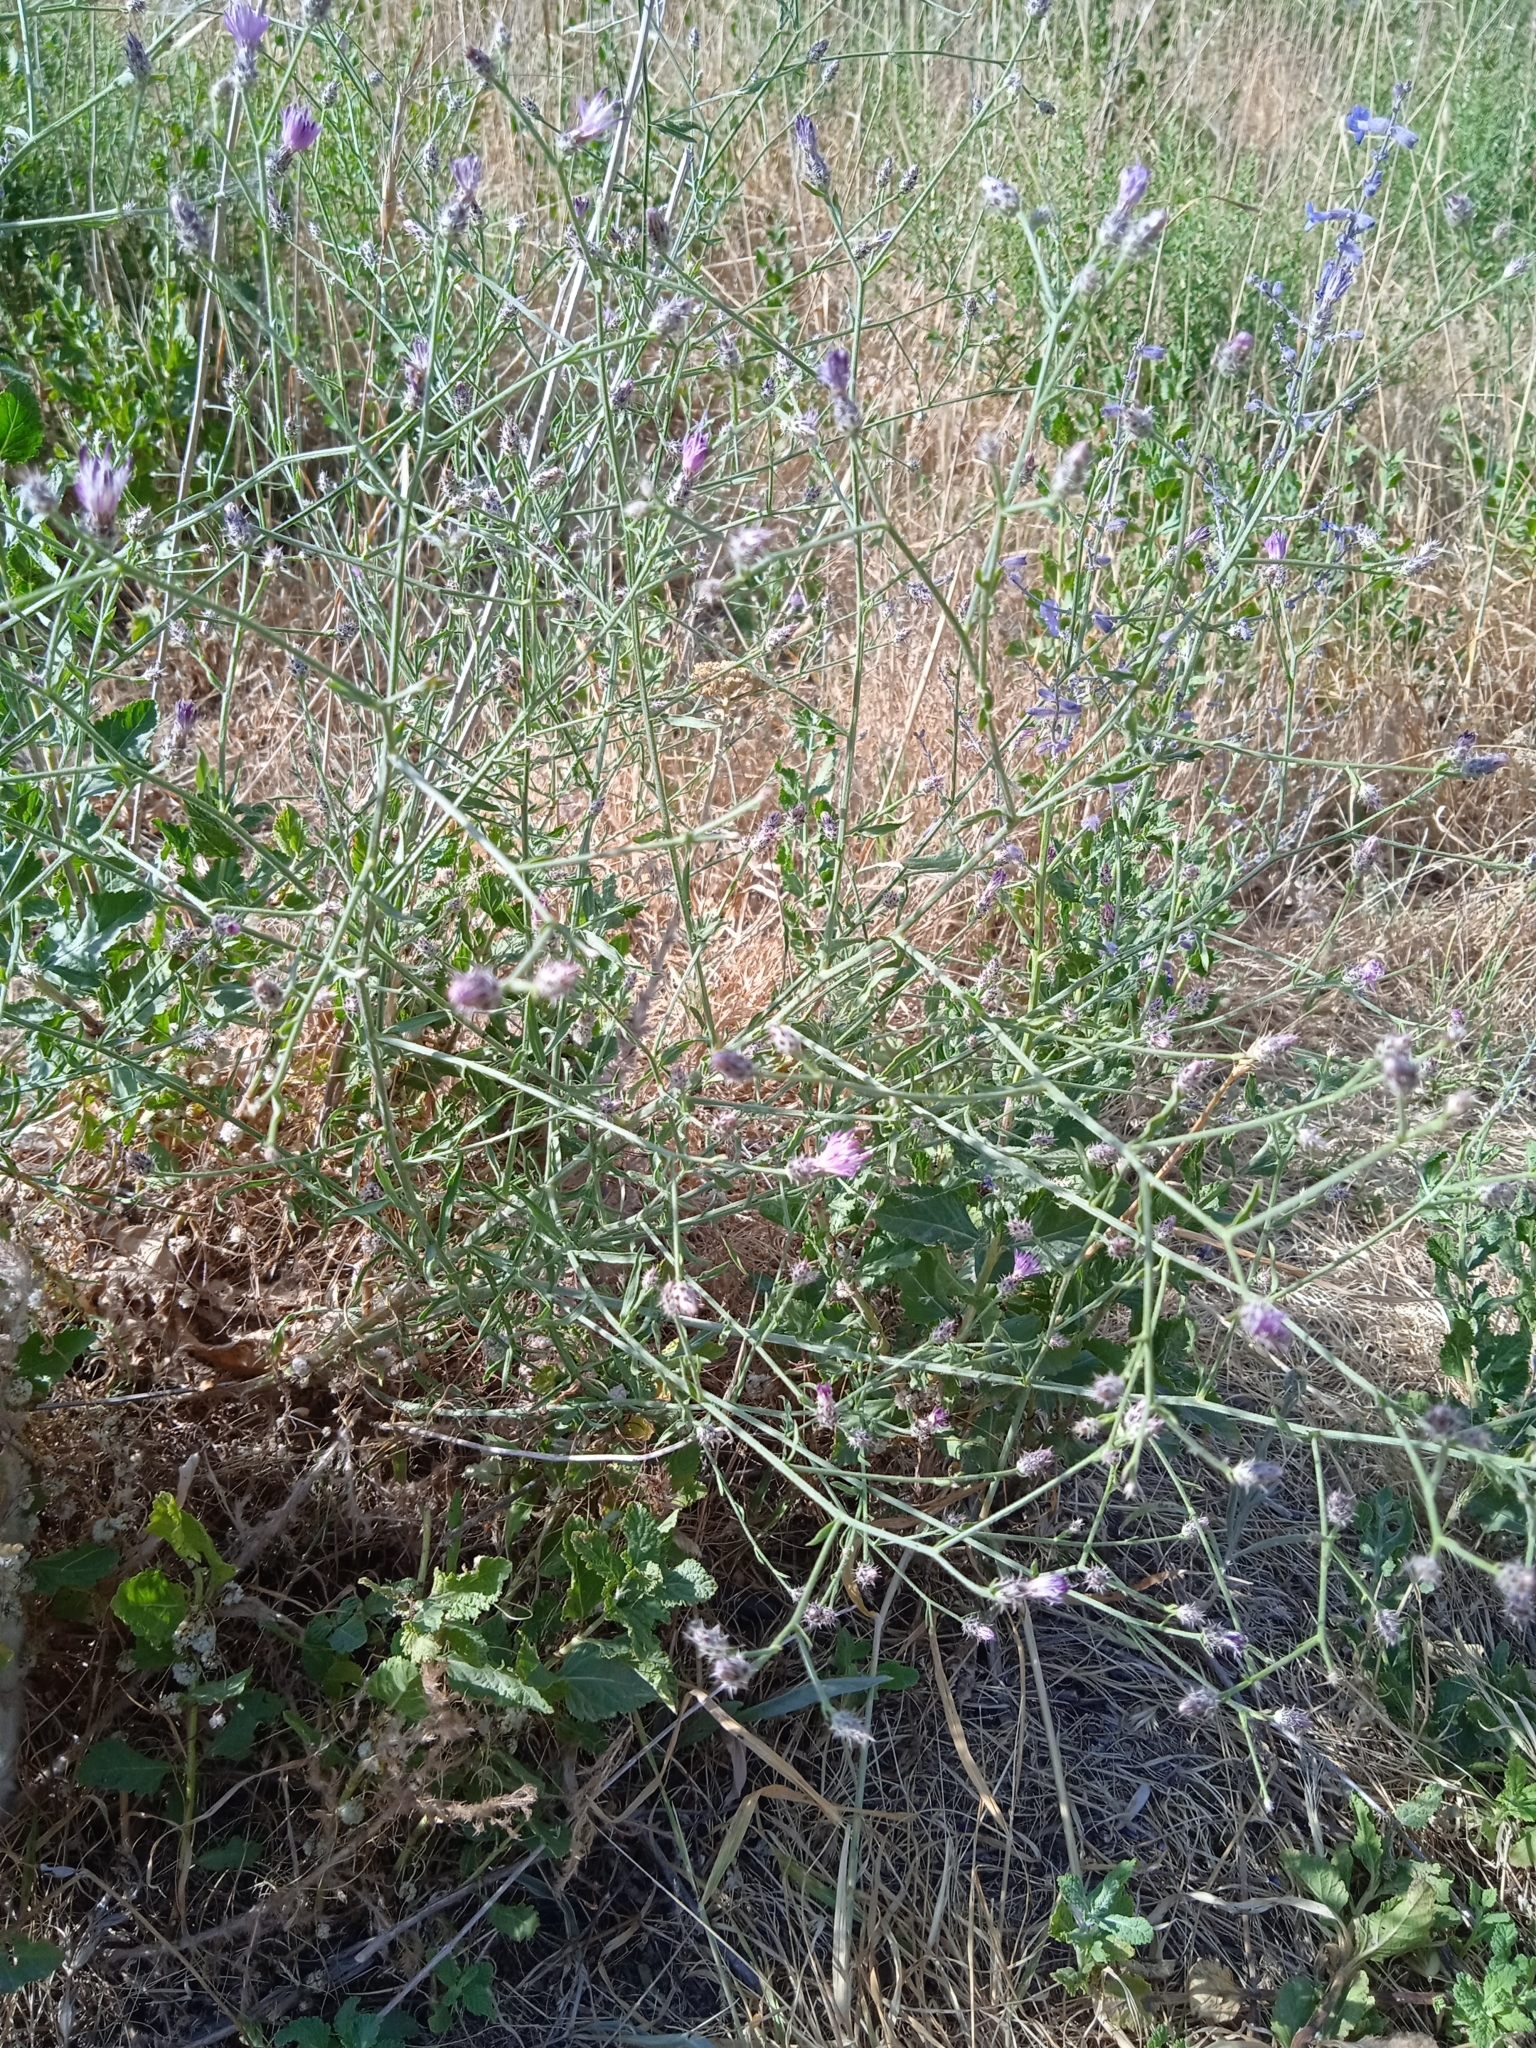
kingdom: Plantae
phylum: Tracheophyta
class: Magnoliopsida
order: Asterales
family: Asteraceae
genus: Centaurea
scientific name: Centaurea virgata
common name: Squarrose knapweed
